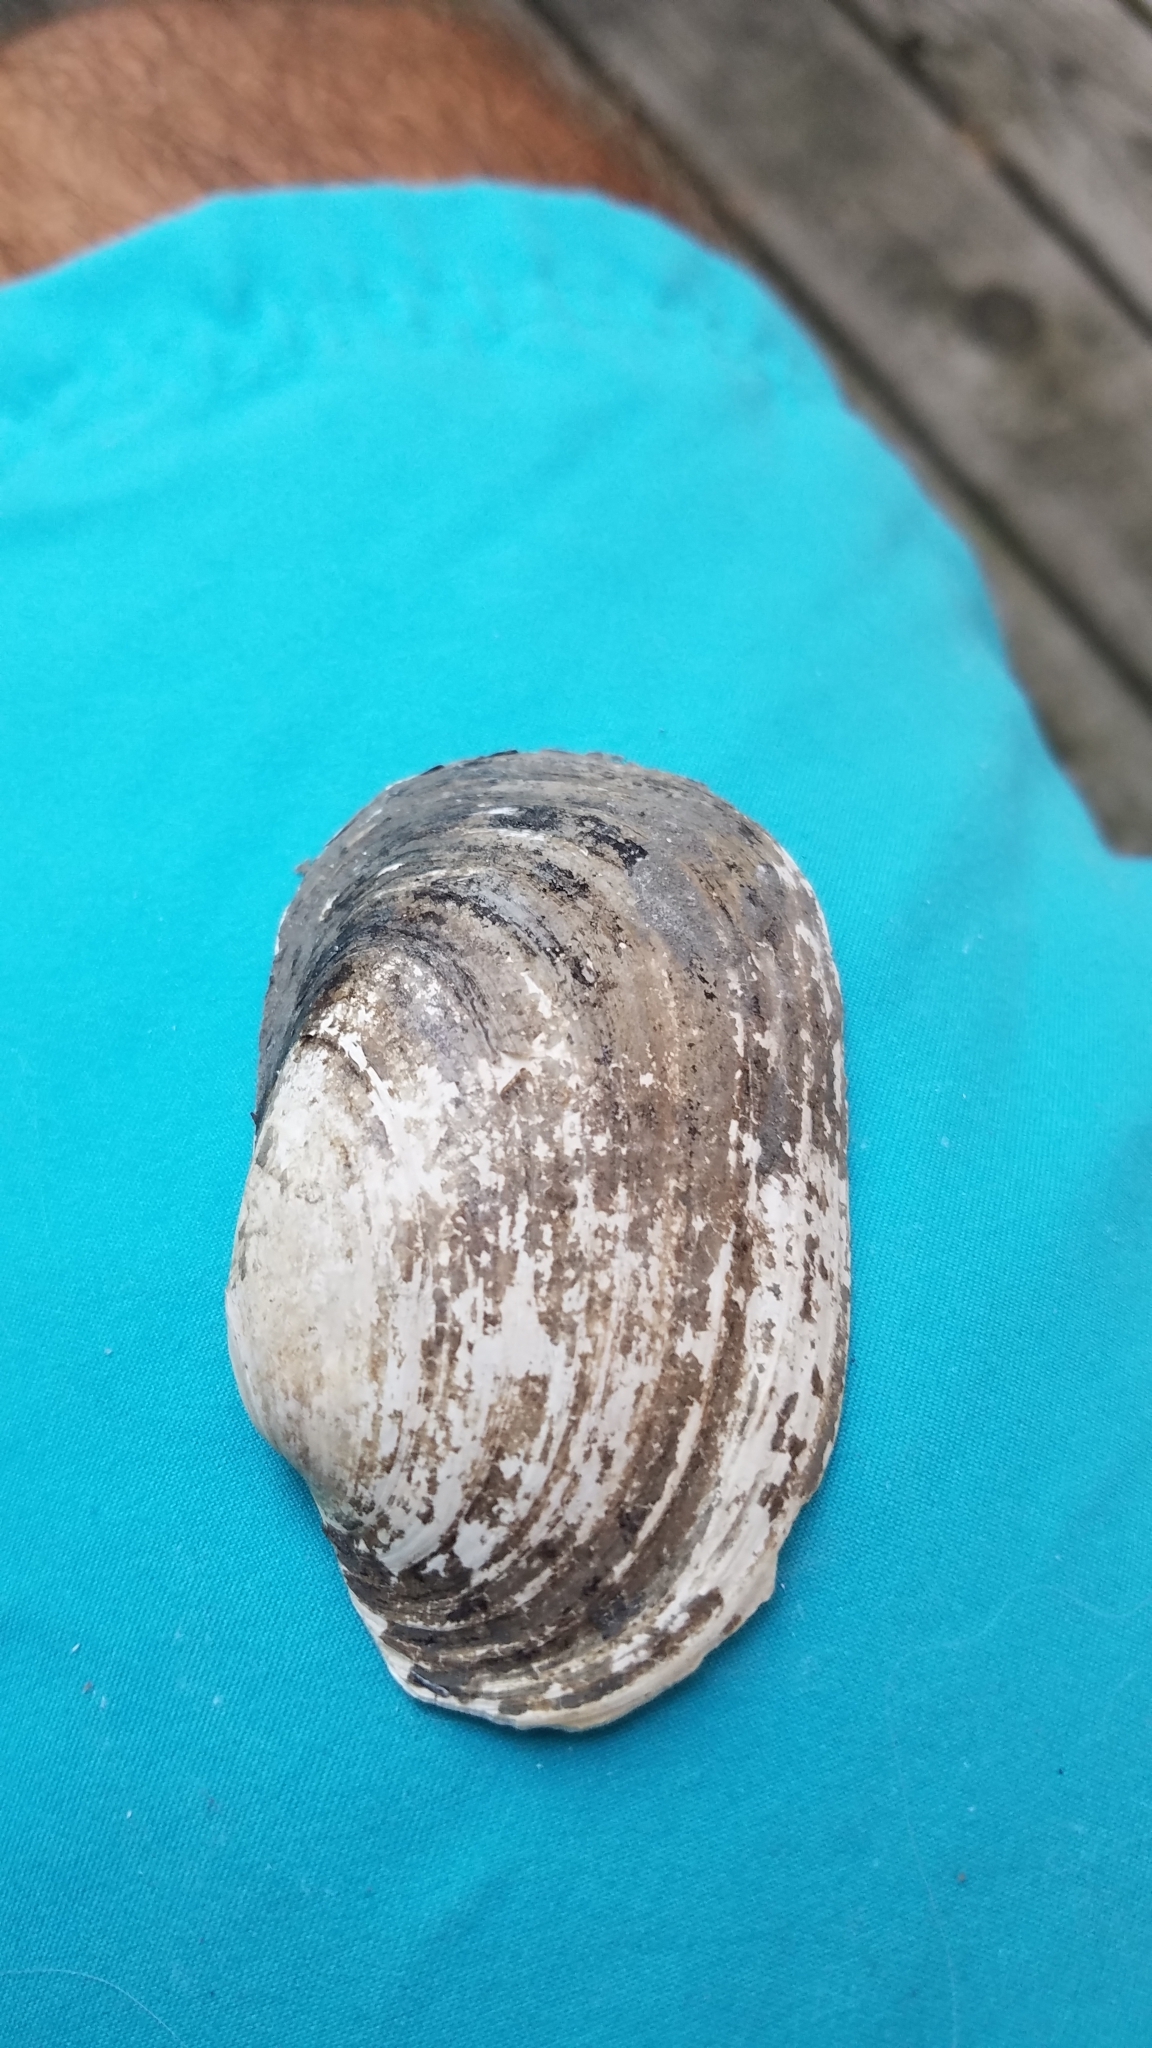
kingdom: Animalia
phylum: Mollusca
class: Bivalvia
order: Unionida
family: Unionidae
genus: Lampsilis
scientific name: Lampsilis siliquoidea
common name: Fatmucket
